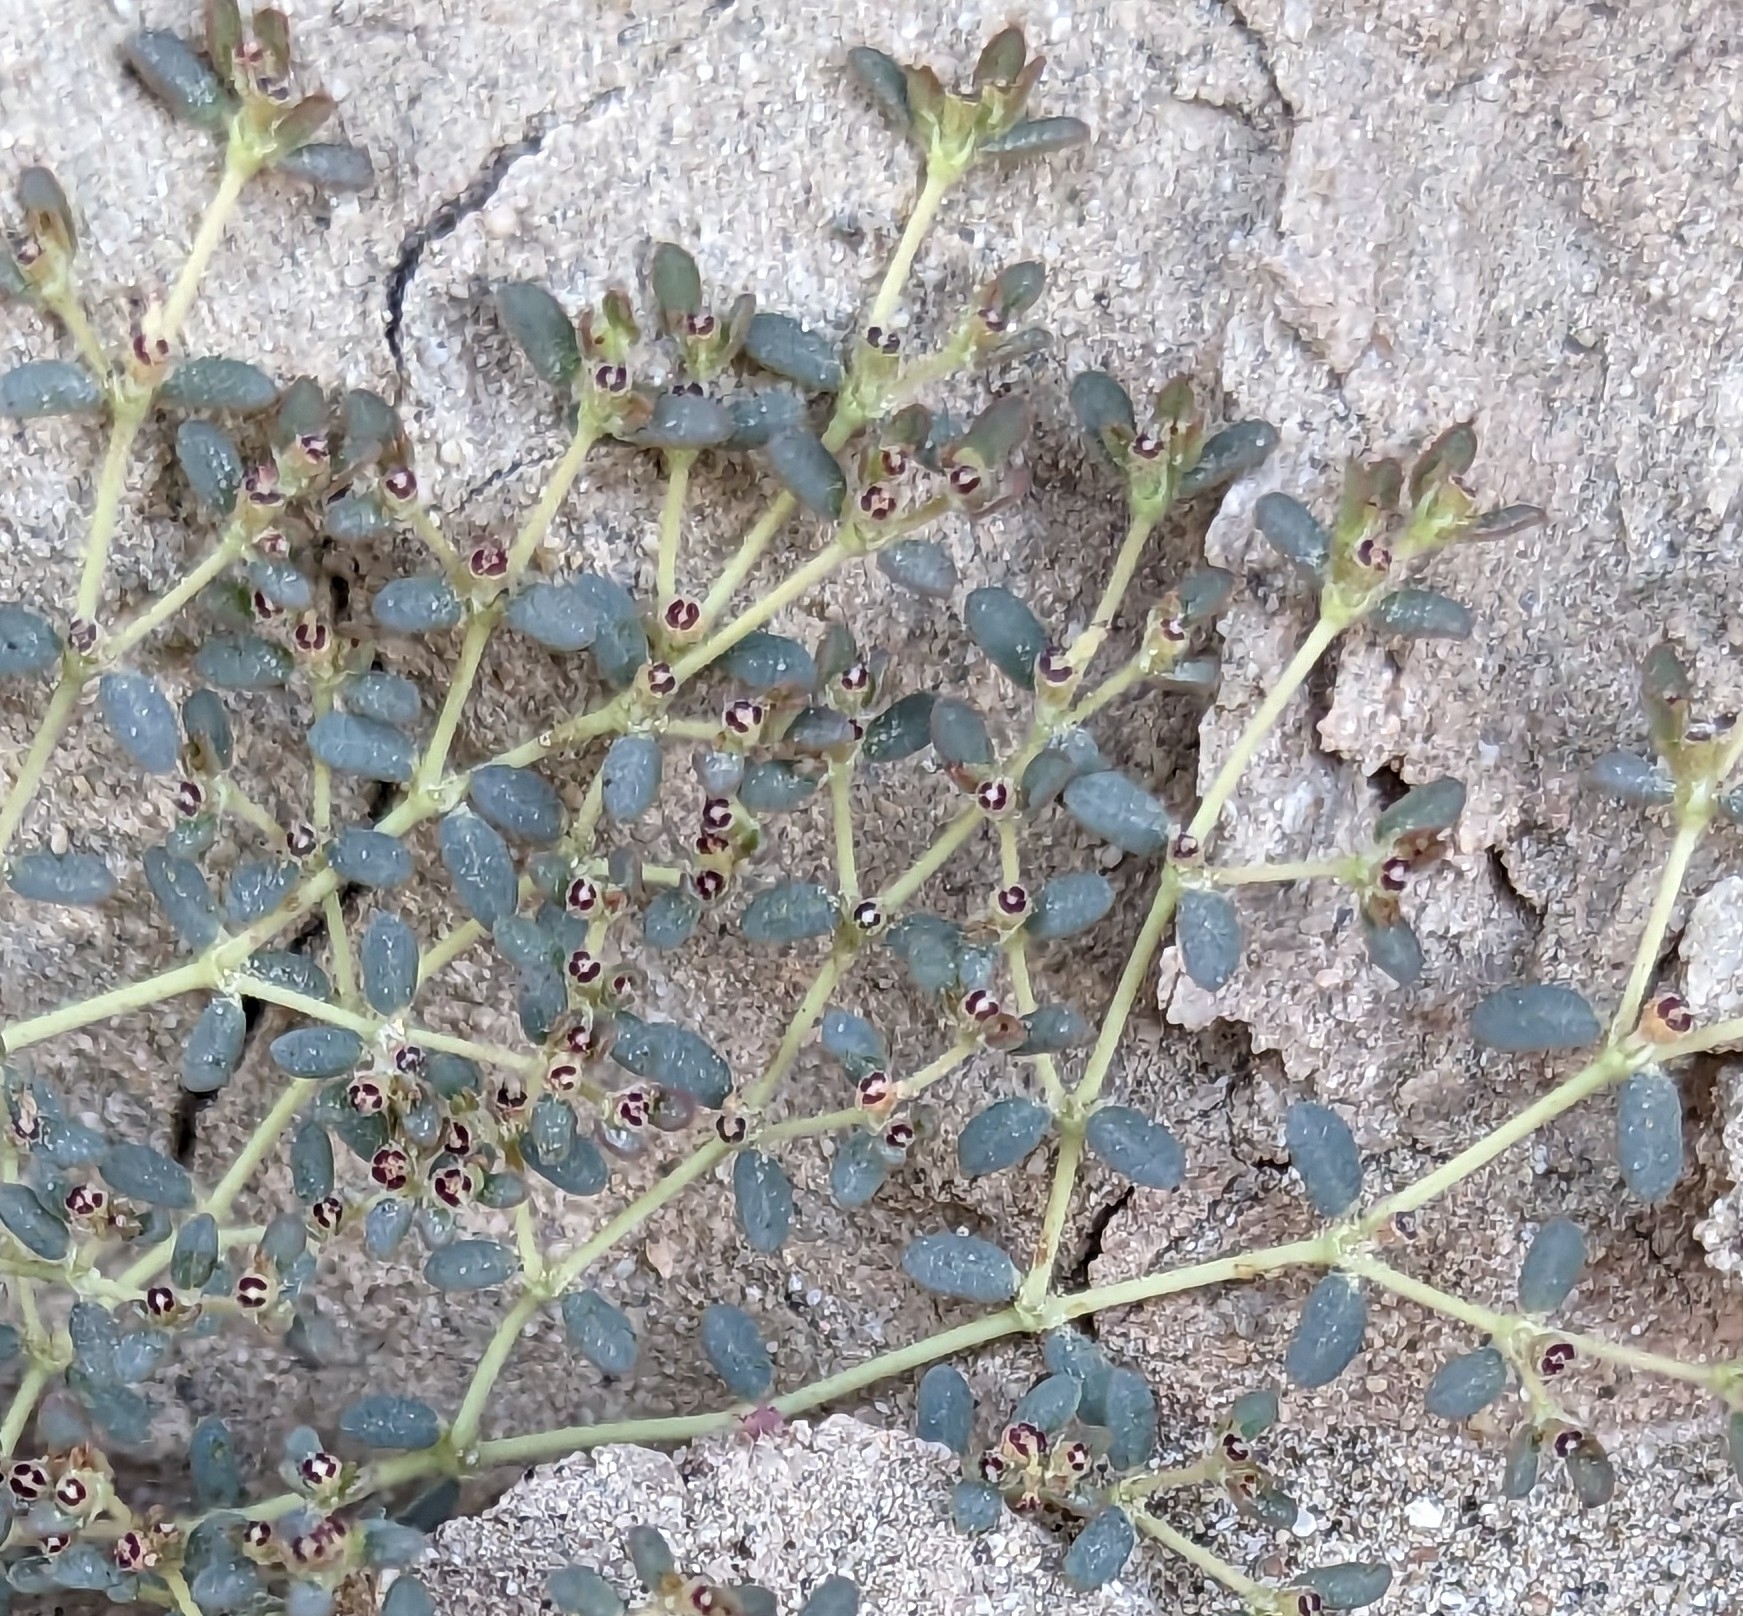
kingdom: Plantae
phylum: Tracheophyta
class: Magnoliopsida
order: Malpighiales
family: Euphorbiaceae
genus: Euphorbia
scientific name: Euphorbia polycarpa
